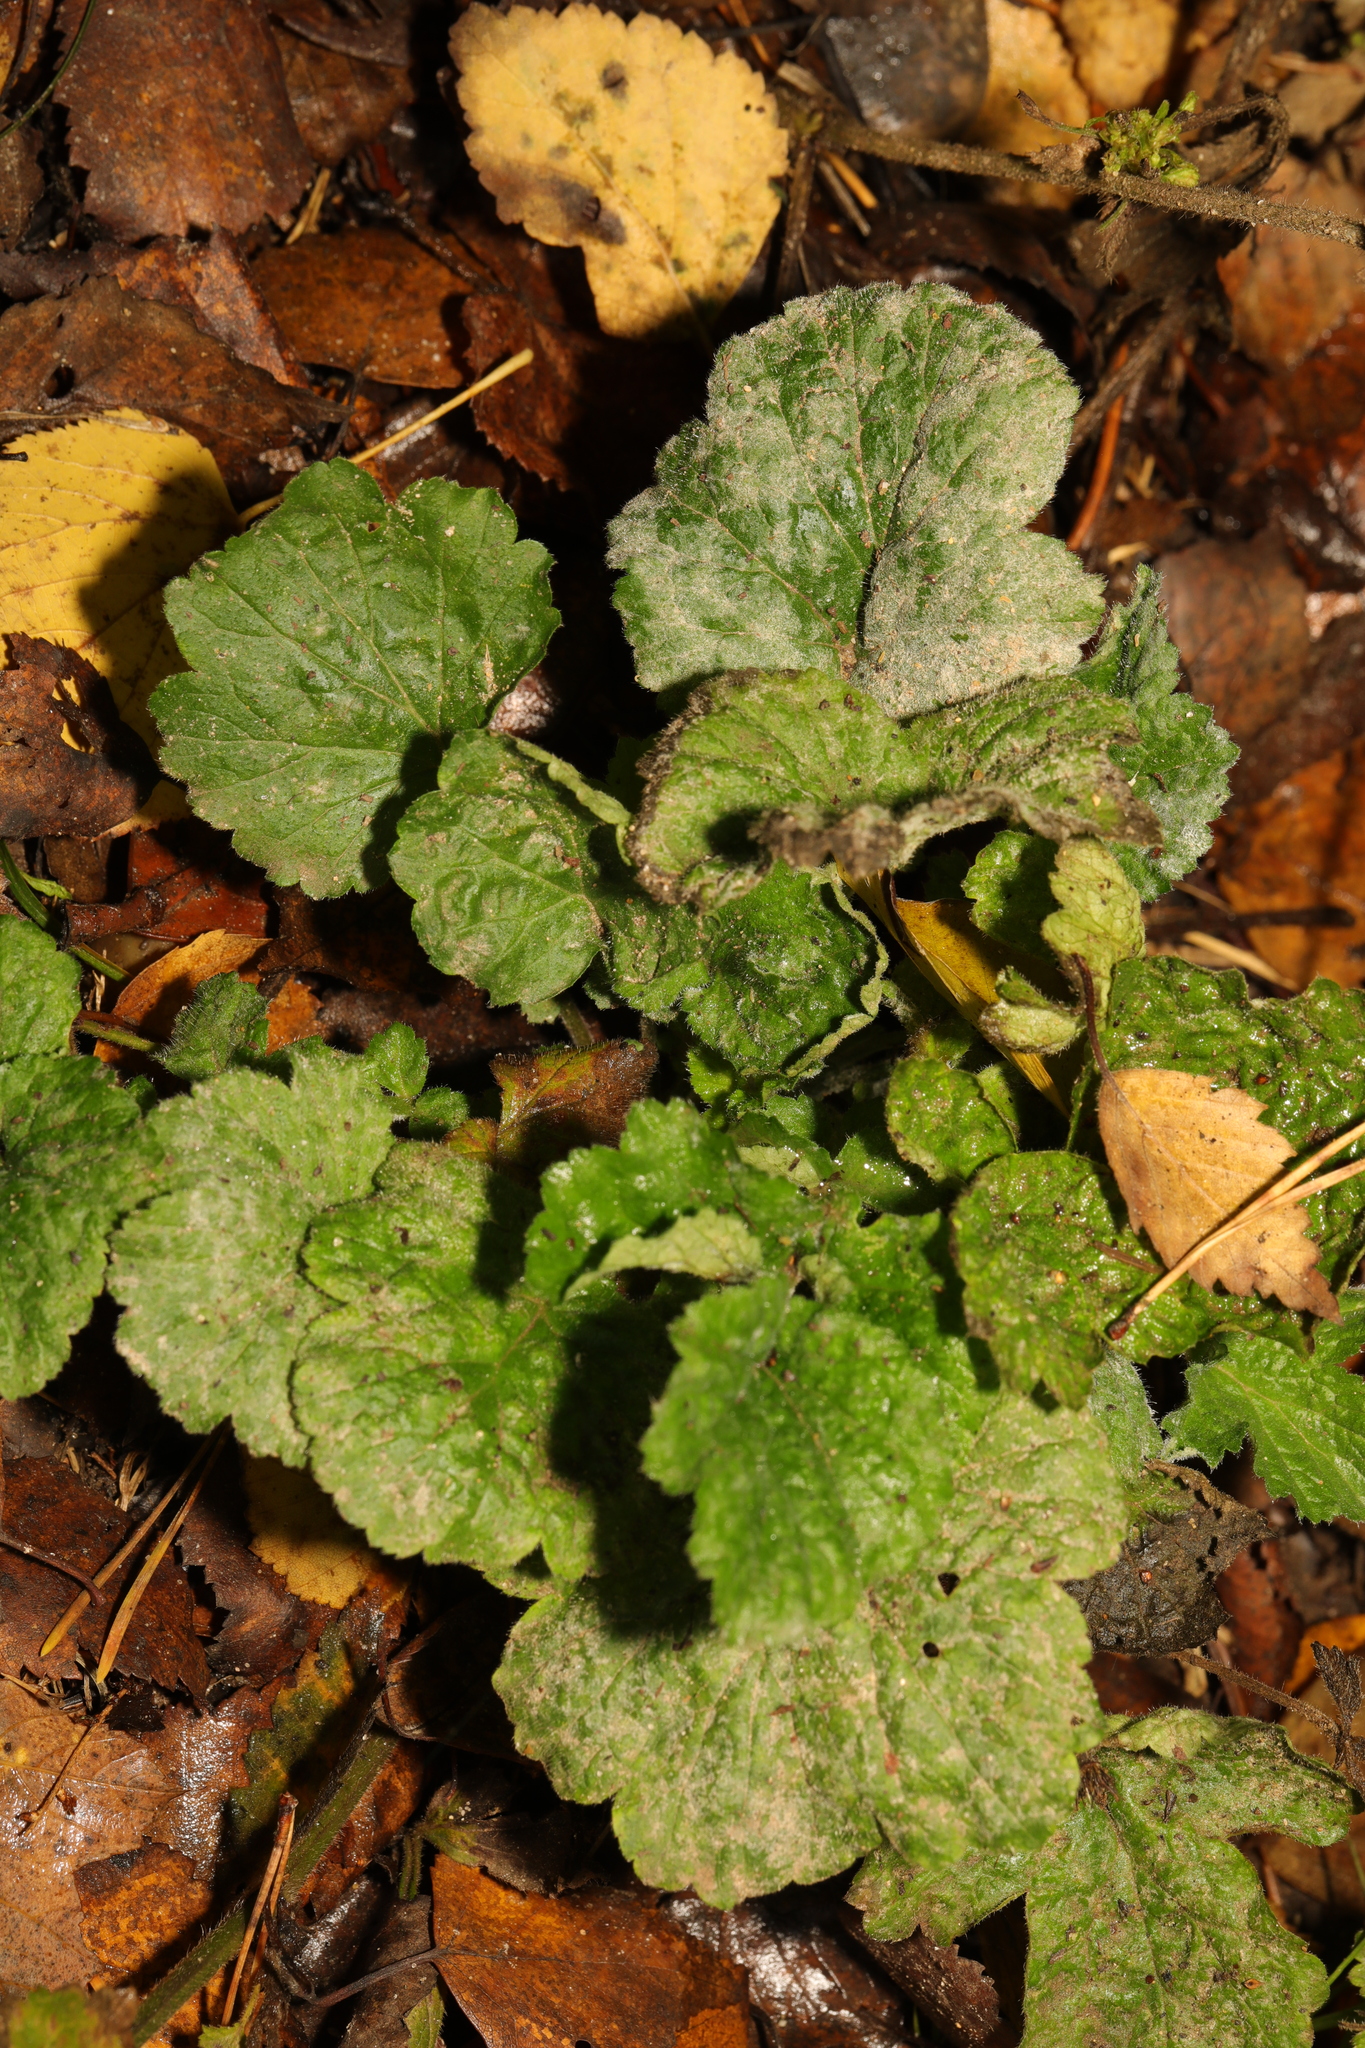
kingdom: Plantae
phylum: Tracheophyta
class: Magnoliopsida
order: Rosales
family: Rosaceae
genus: Geum
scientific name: Geum urbanum
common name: Wood avens
